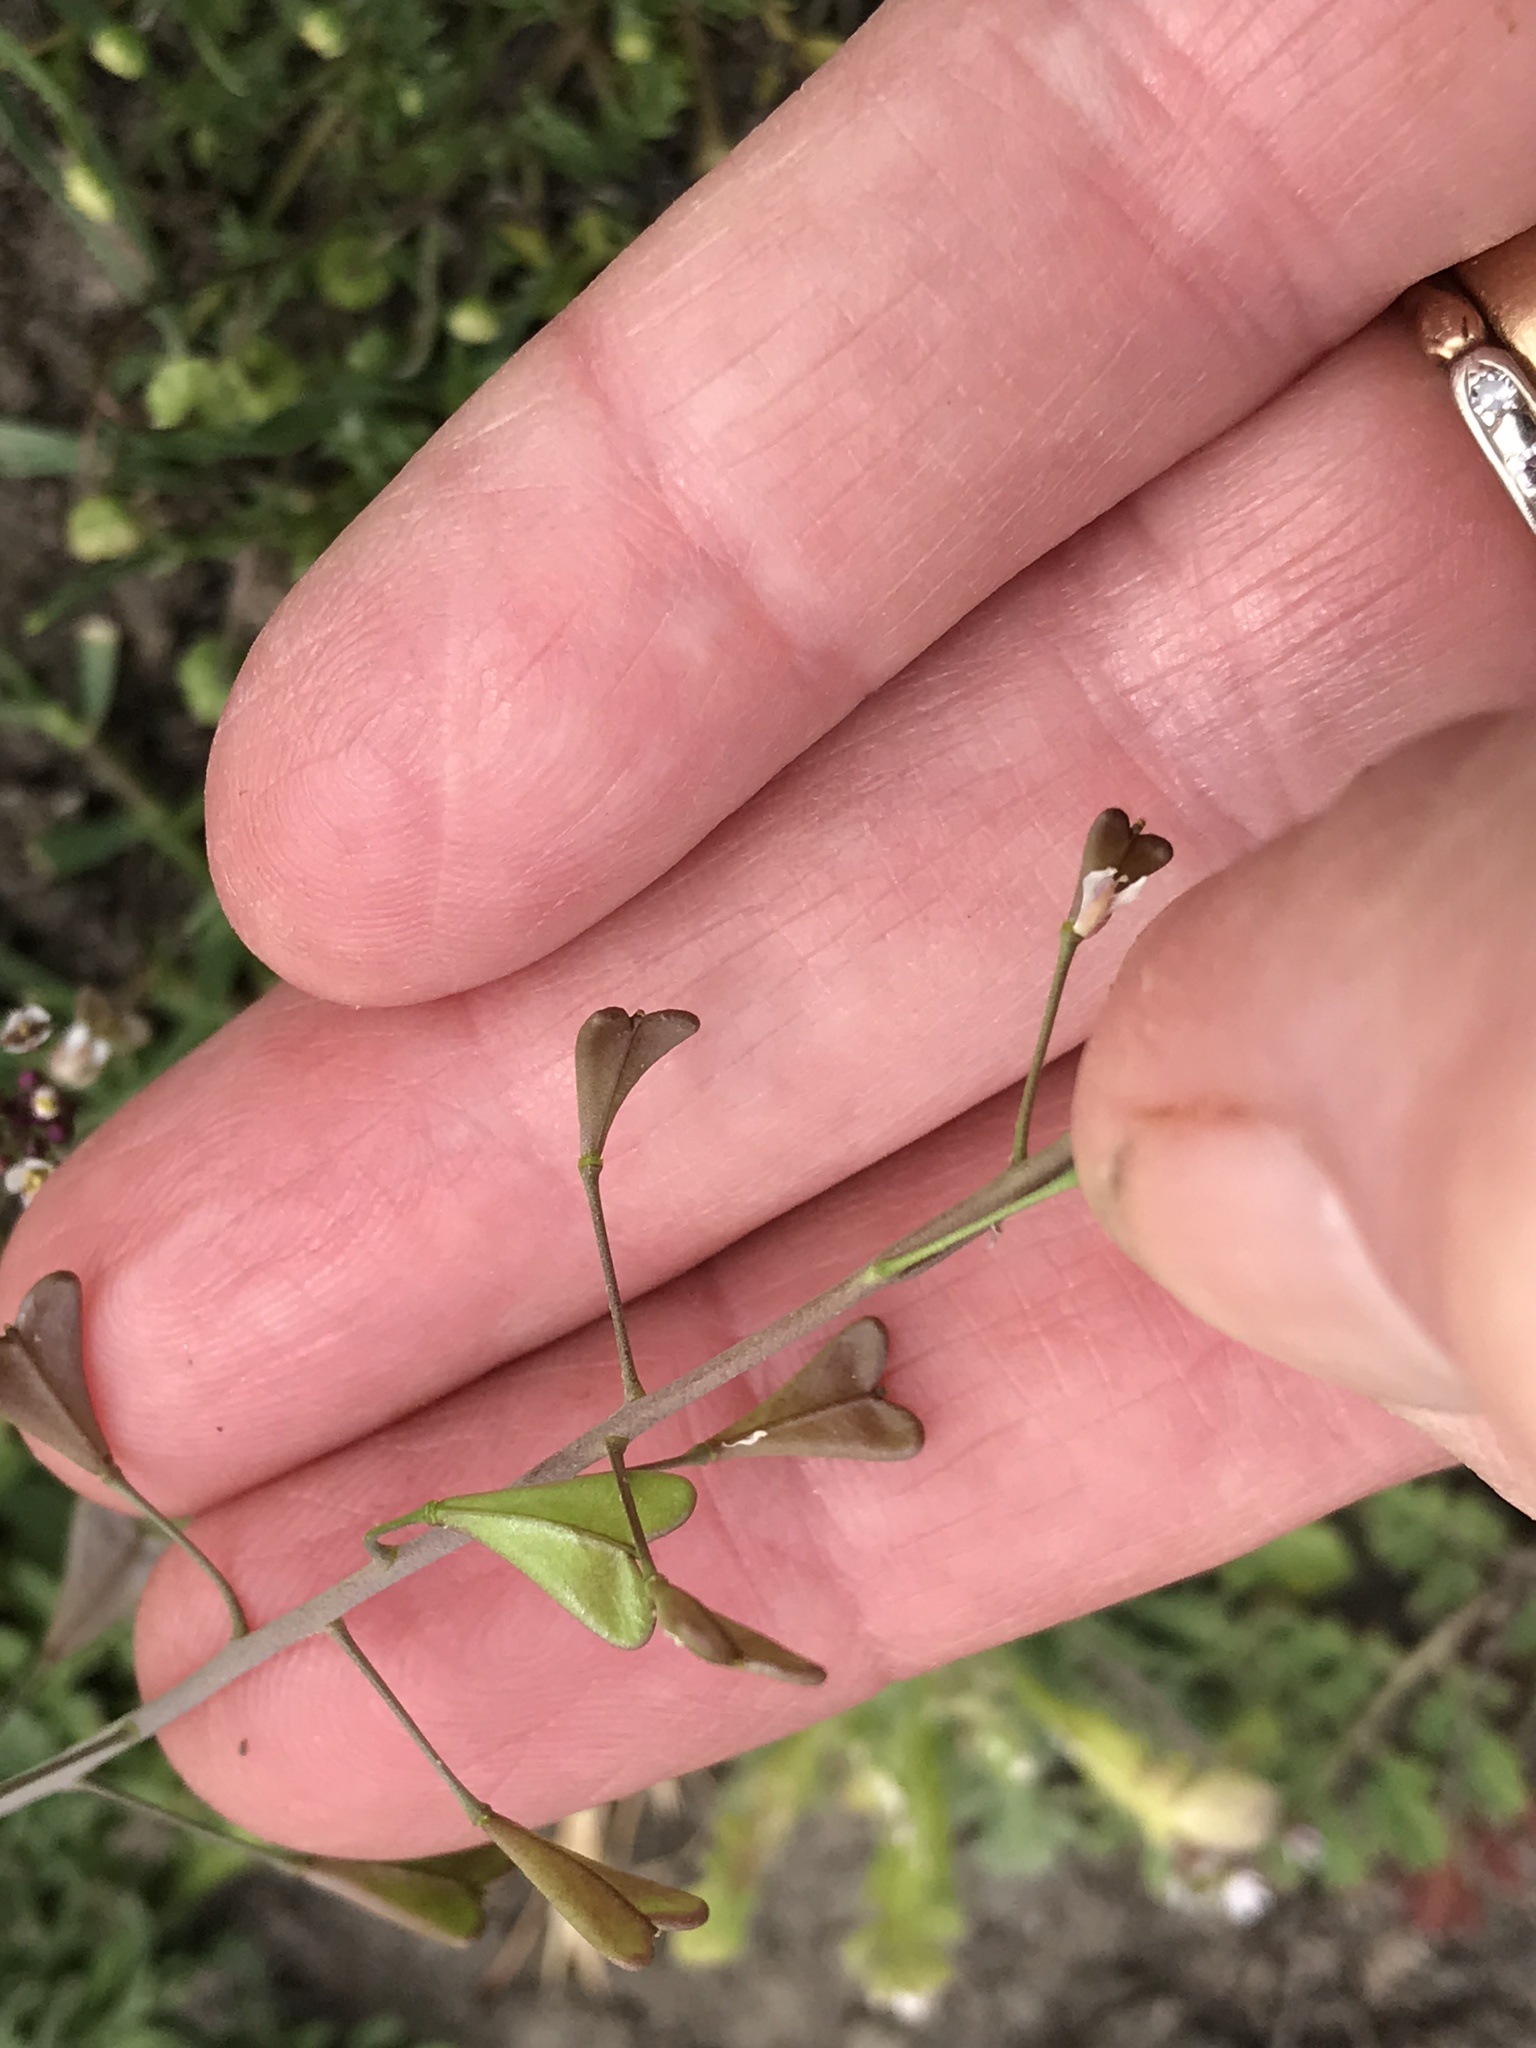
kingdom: Plantae
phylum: Tracheophyta
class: Magnoliopsida
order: Brassicales
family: Brassicaceae
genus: Capsella
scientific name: Capsella bursa-pastoris
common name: Shepherd's purse
